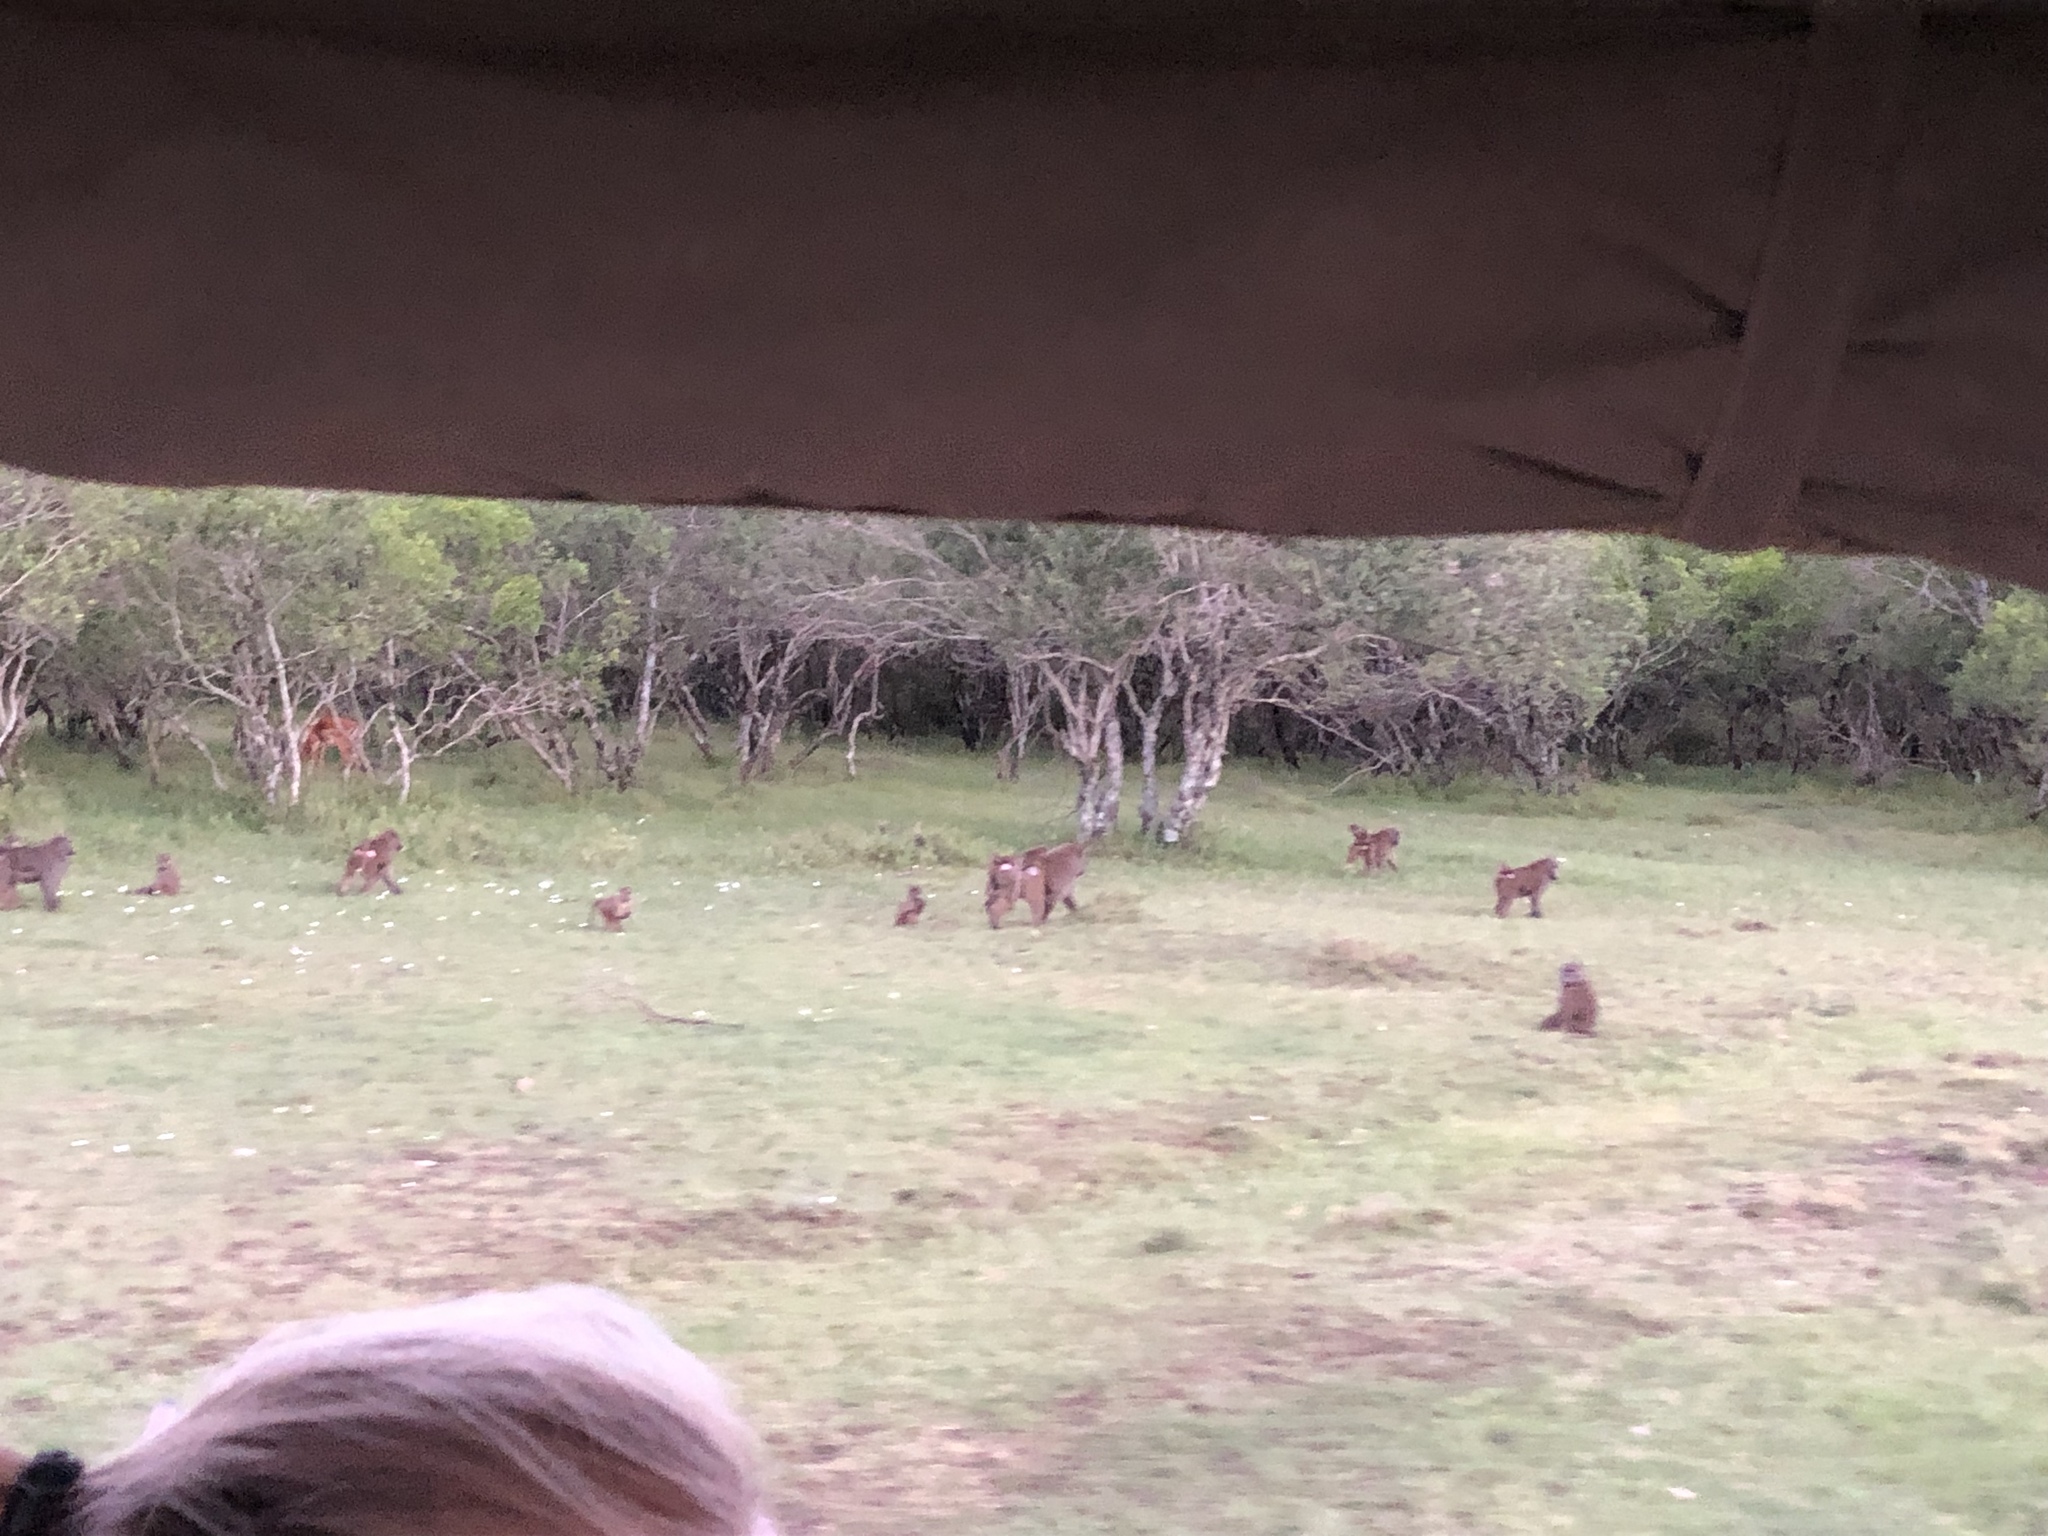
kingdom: Animalia
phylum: Chordata
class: Mammalia
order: Primates
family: Cercopithecidae
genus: Papio
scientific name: Papio anubis
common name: Olive baboon
